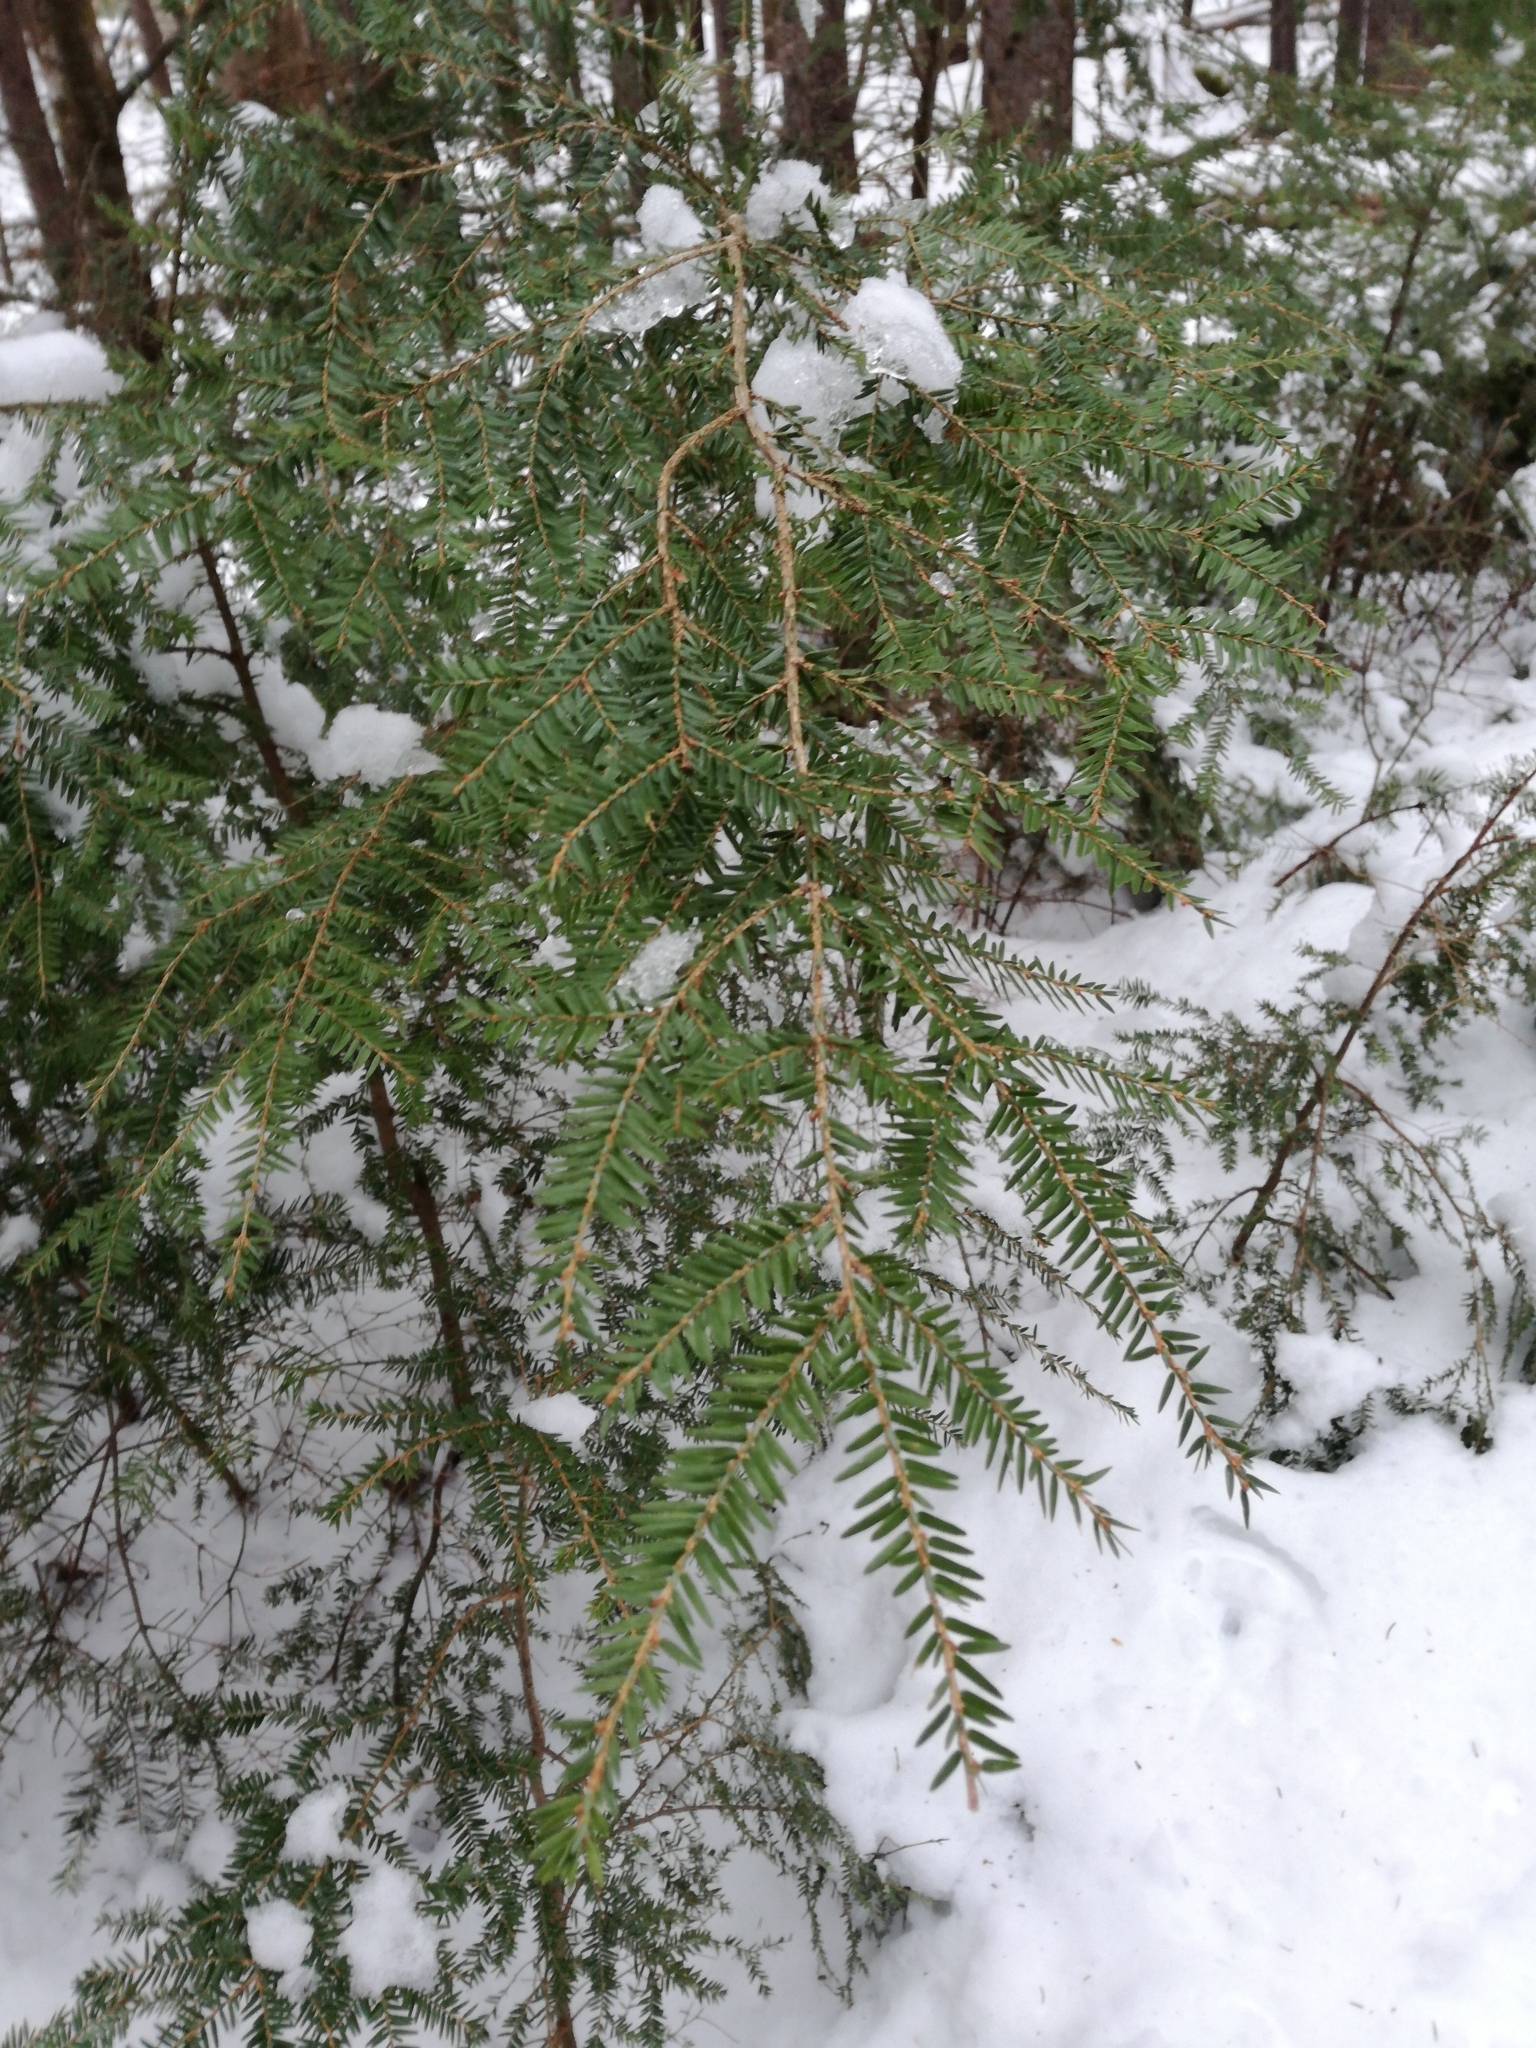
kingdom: Plantae
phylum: Tracheophyta
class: Pinopsida
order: Pinales
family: Pinaceae
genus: Tsuga
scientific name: Tsuga canadensis
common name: Eastern hemlock
